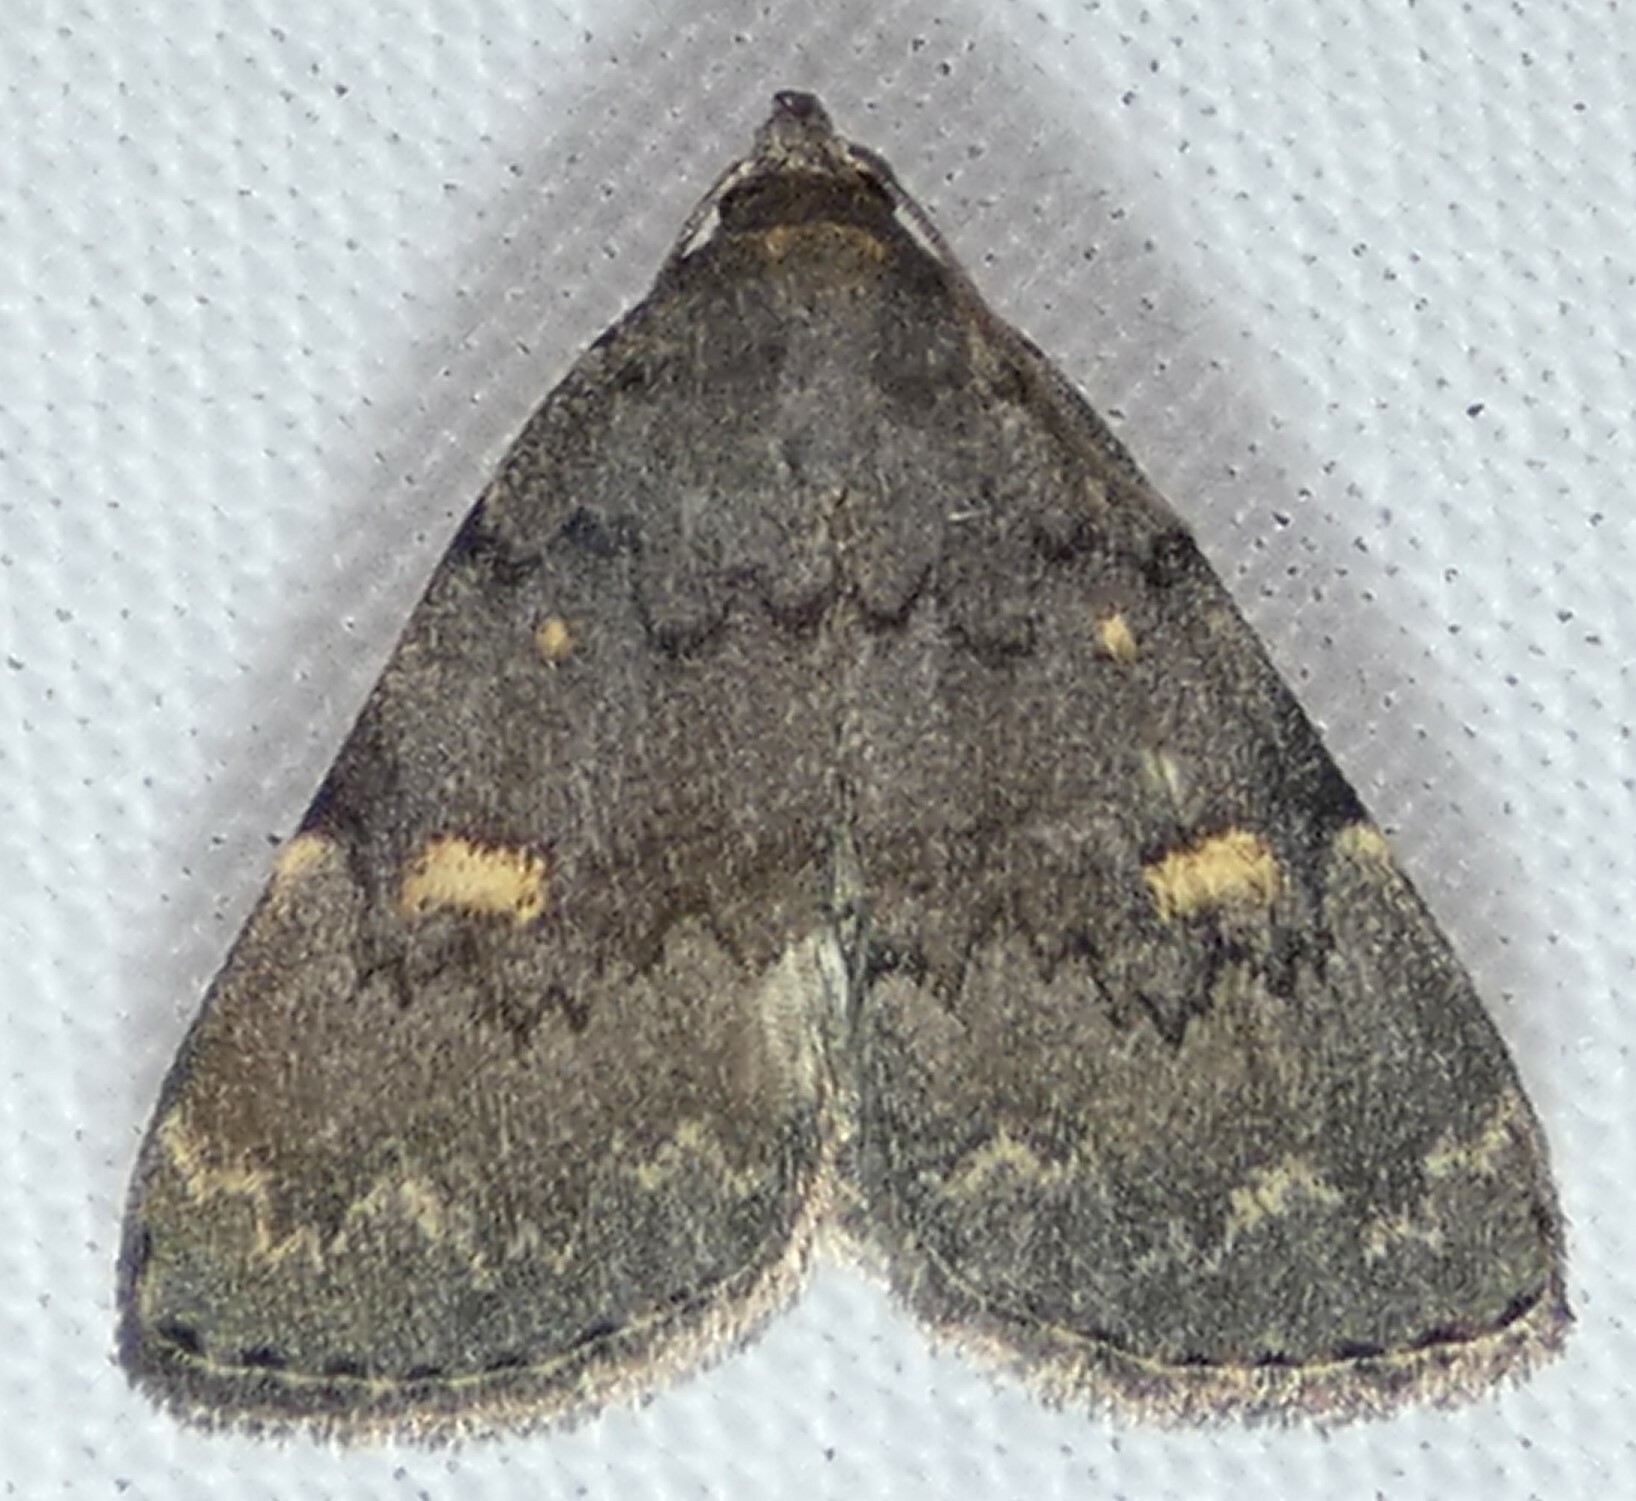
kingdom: Animalia
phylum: Arthropoda
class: Insecta
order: Lepidoptera
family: Erebidae
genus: Idia
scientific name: Idia aemula
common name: Common idia moth
